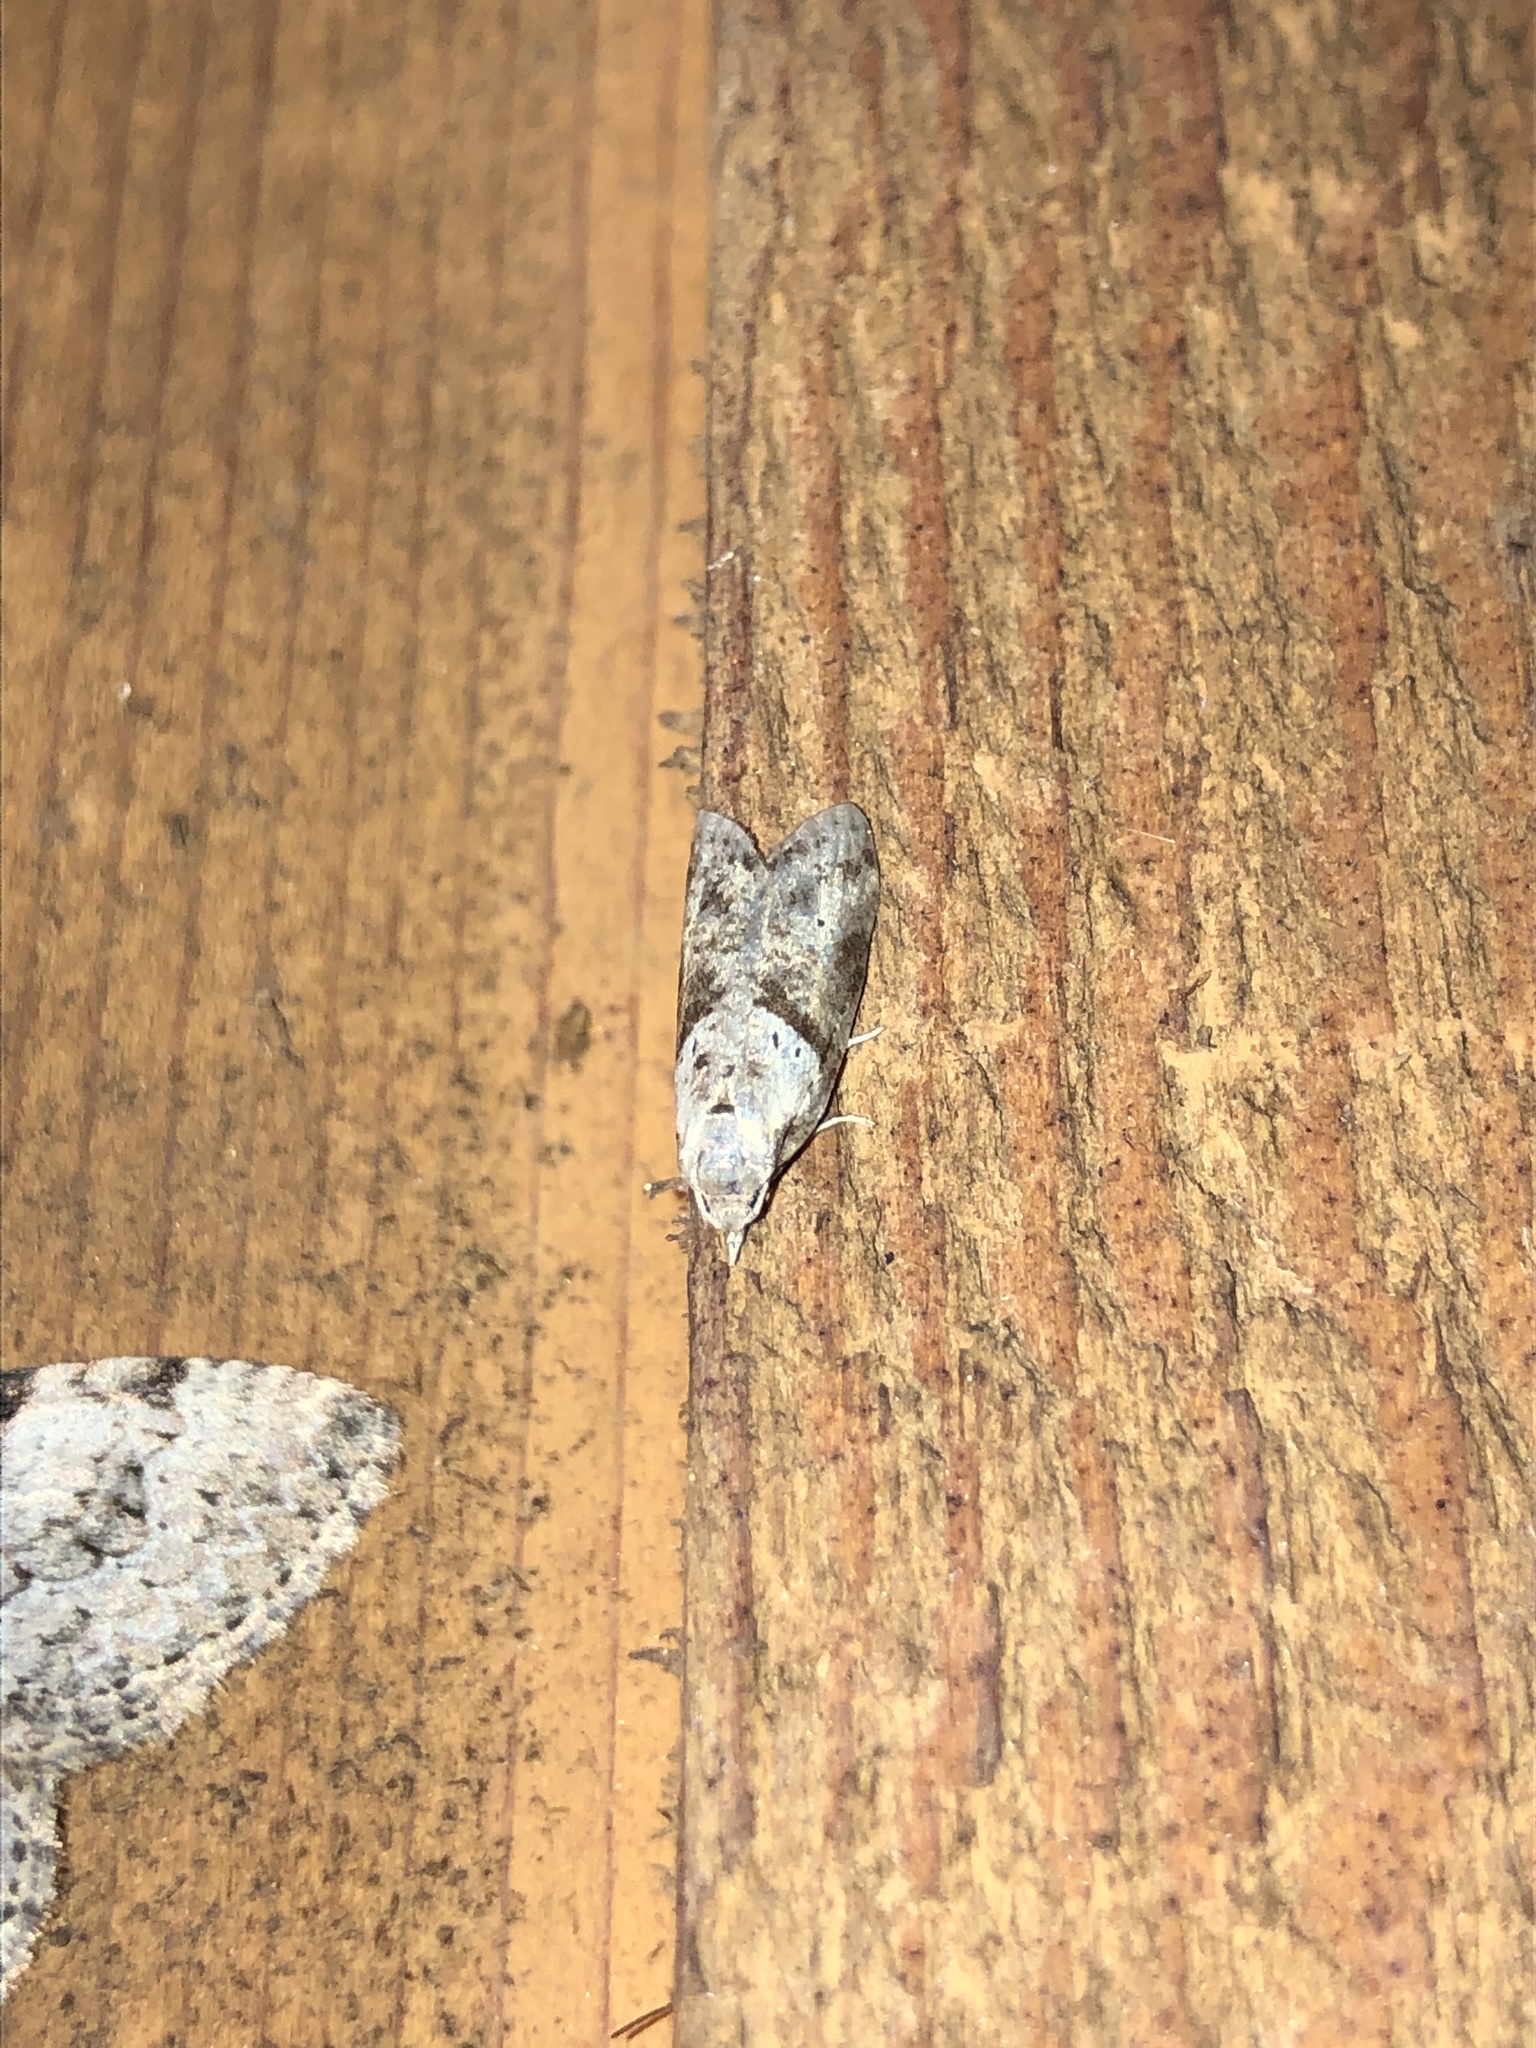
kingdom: Animalia
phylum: Arthropoda
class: Insecta
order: Lepidoptera
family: Copromorphidae
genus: Lotisma
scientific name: Lotisma trigonana
